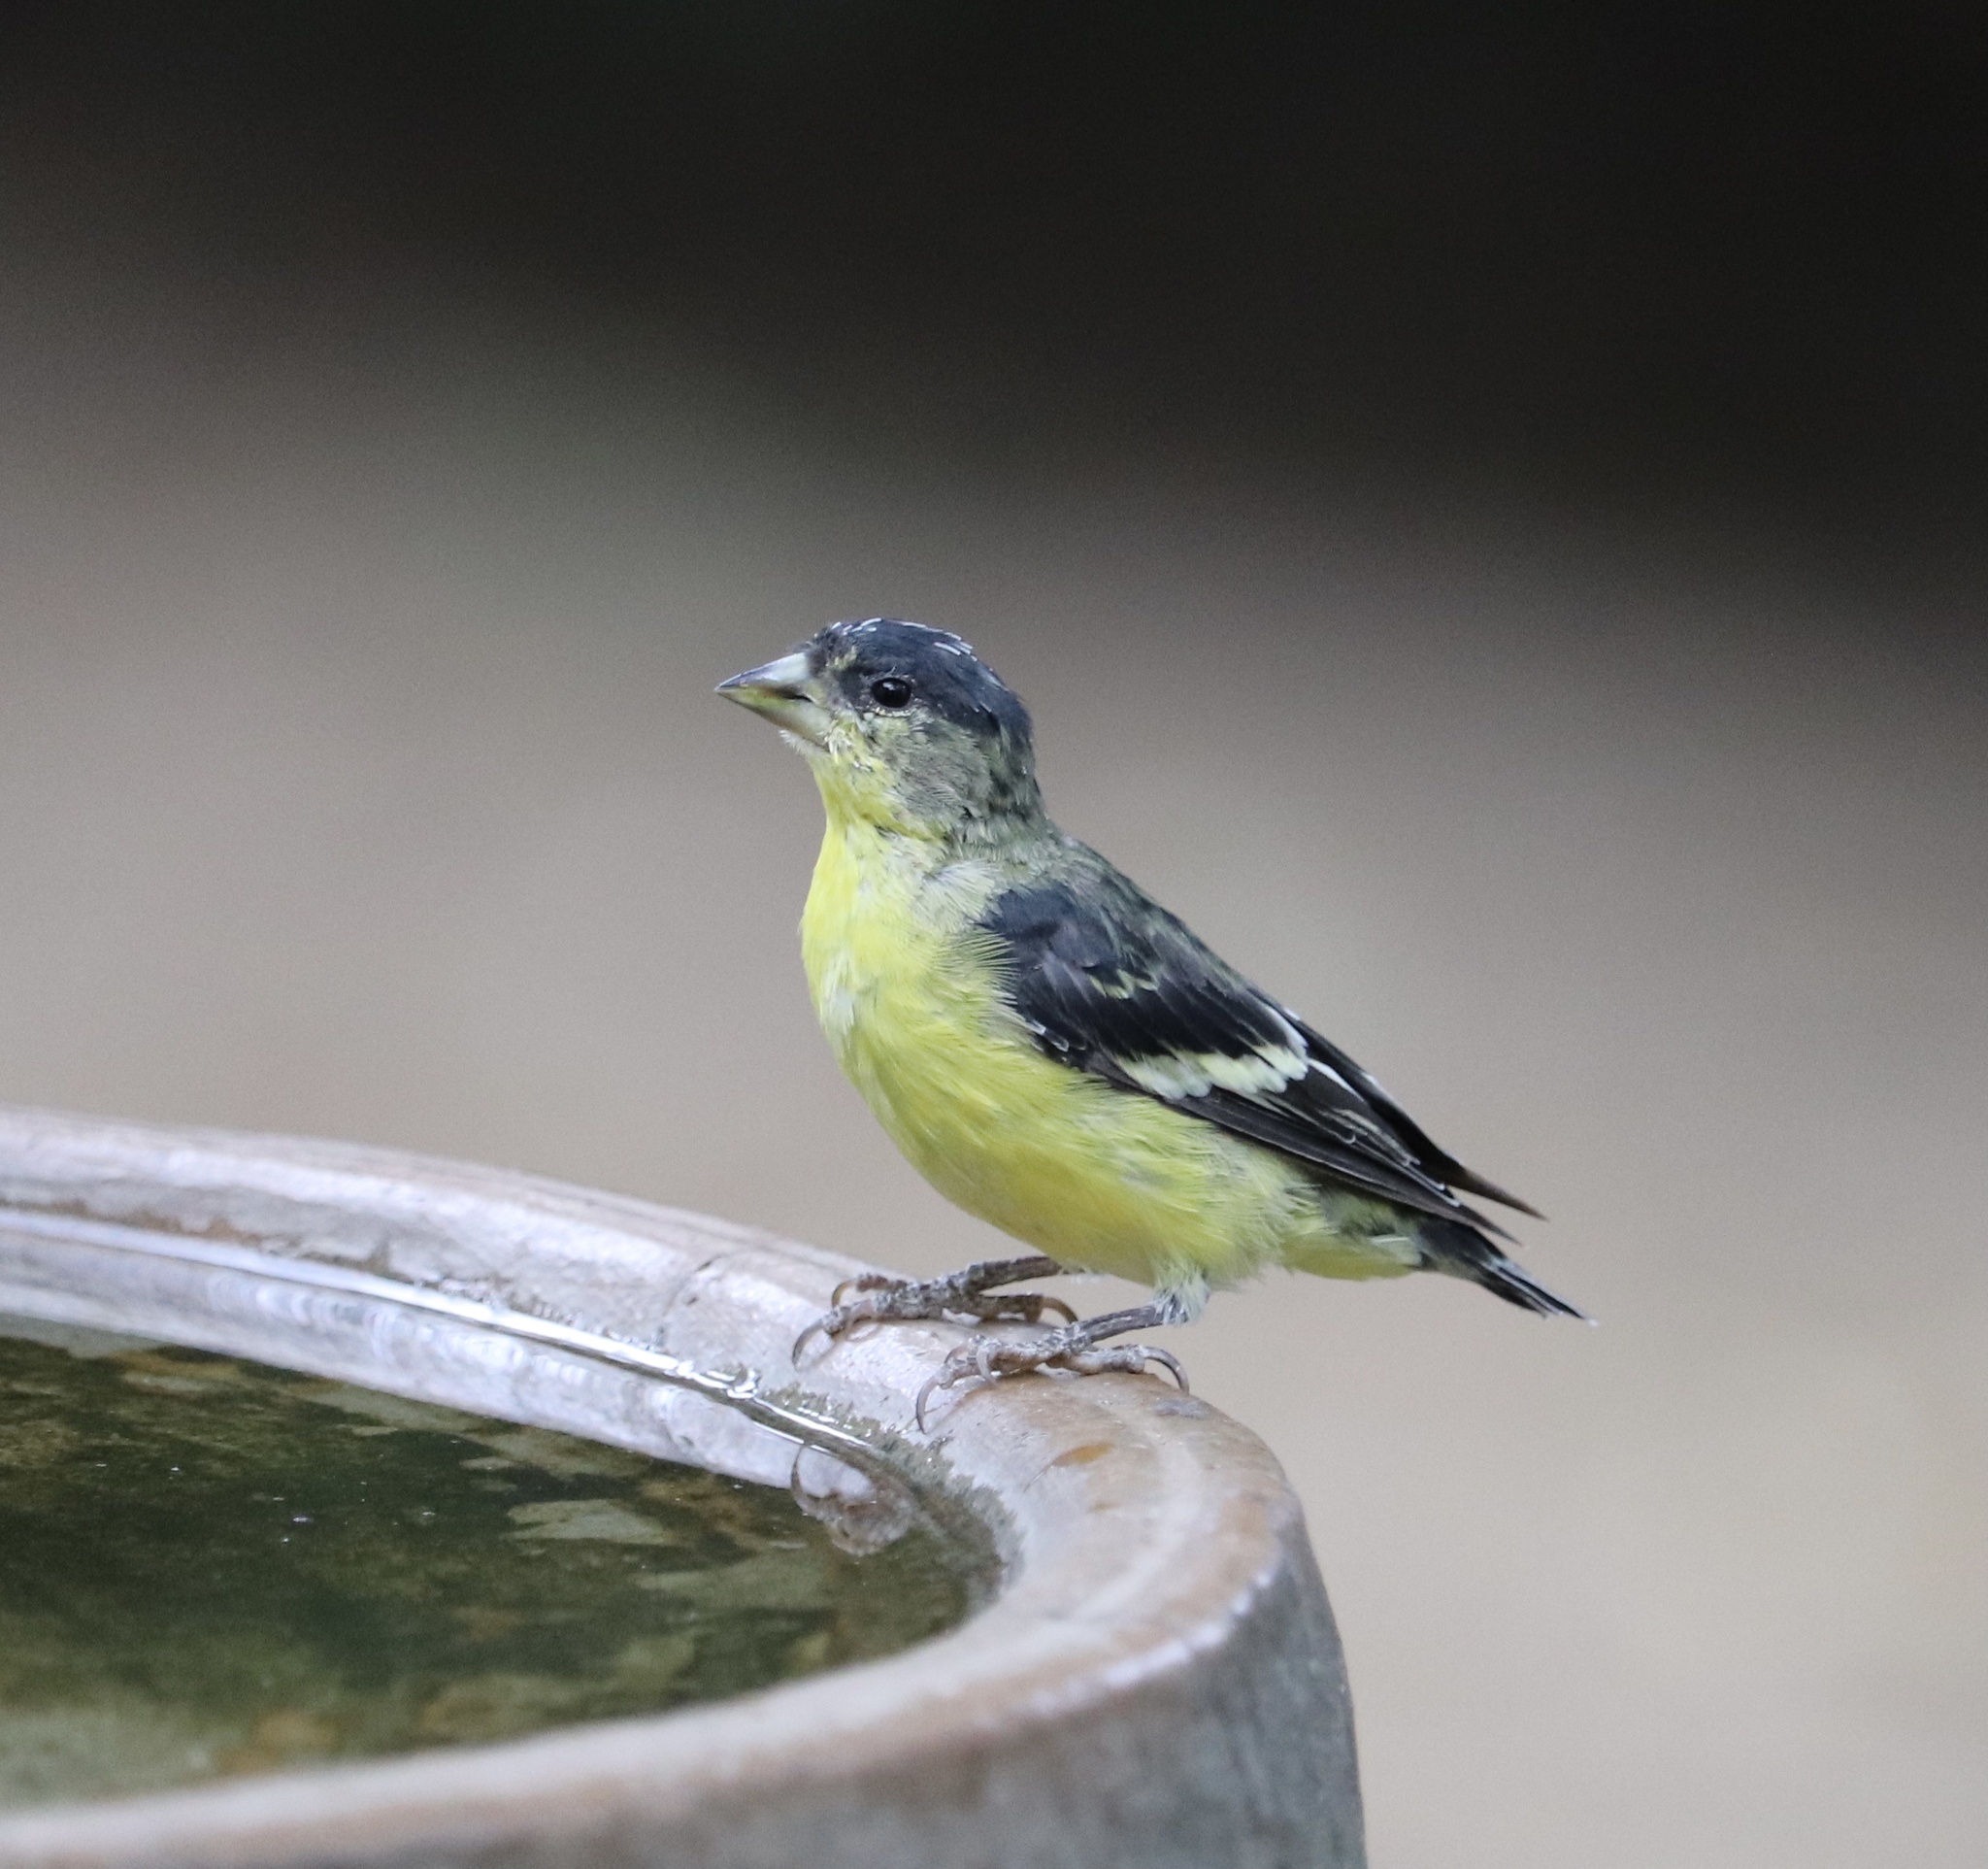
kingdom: Animalia
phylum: Chordata
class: Aves
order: Passeriformes
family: Fringillidae
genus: Spinus
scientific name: Spinus psaltria
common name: Lesser goldfinch
